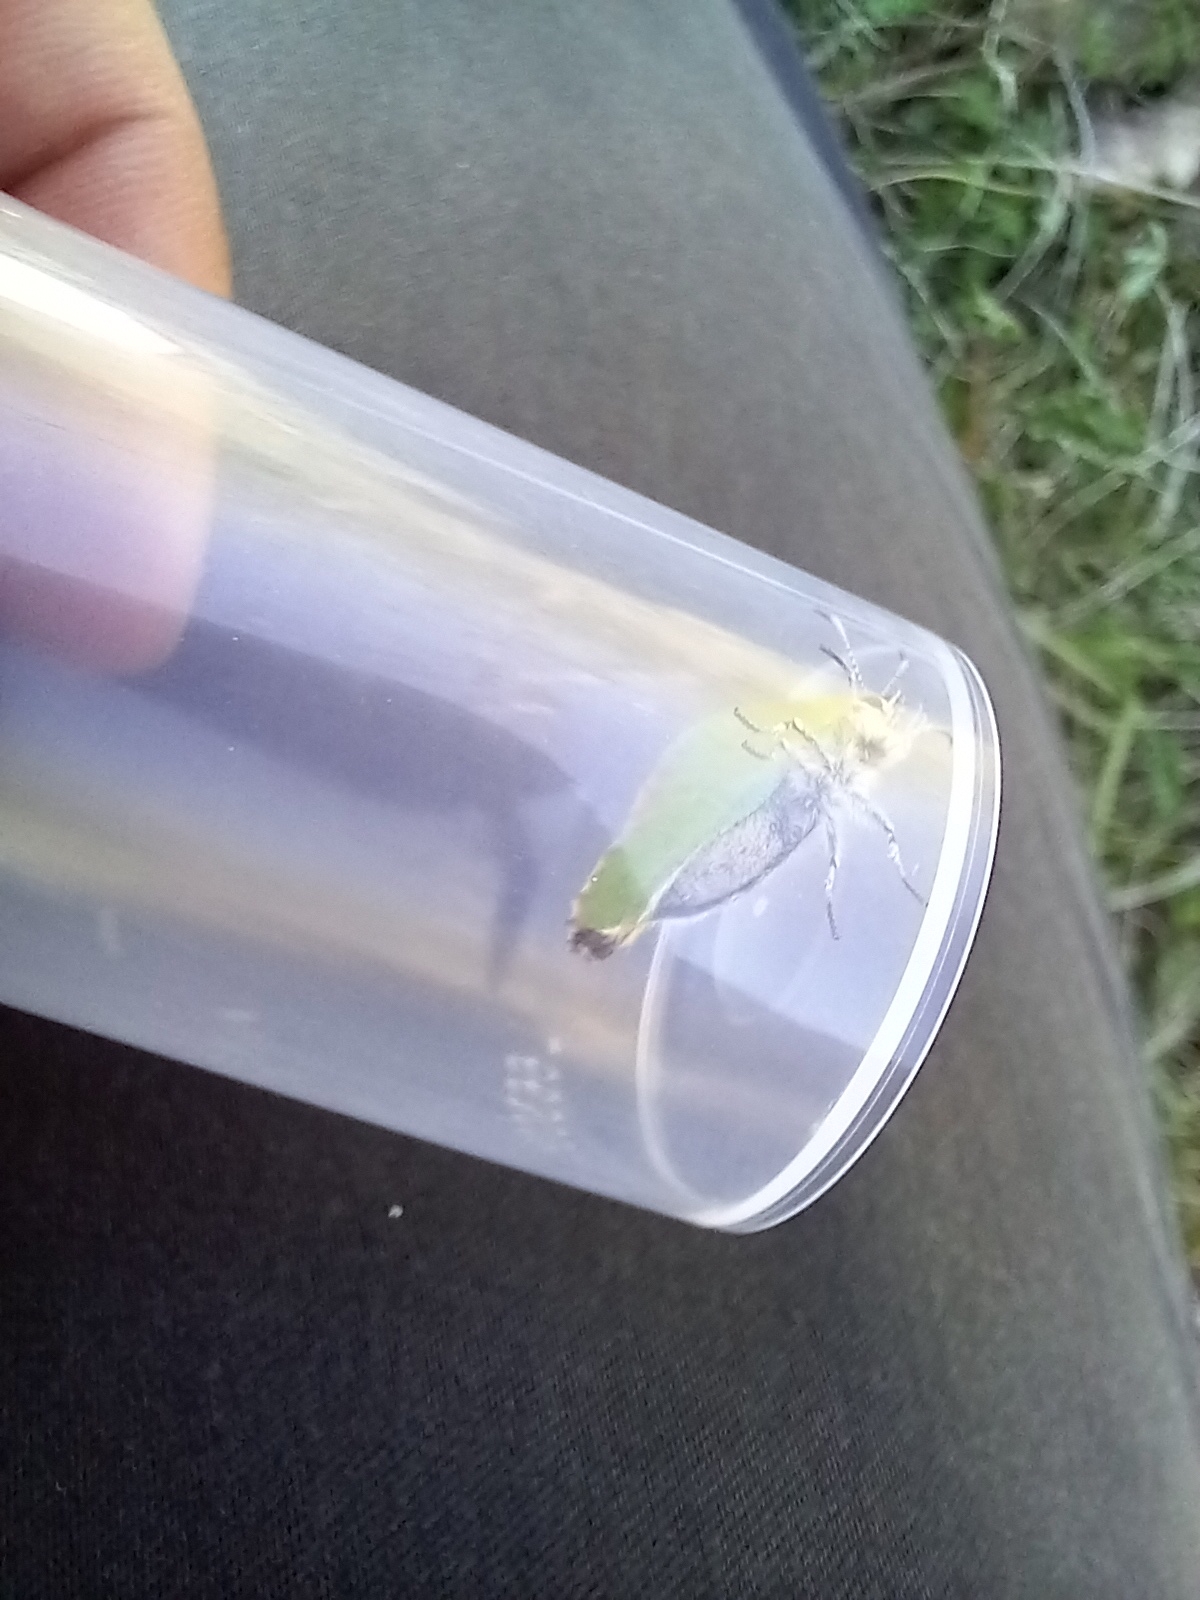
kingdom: Animalia
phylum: Arthropoda
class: Insecta
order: Lepidoptera
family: Lycaenidae
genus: Callophrys
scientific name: Callophrys rubi
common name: Green hairstreak
